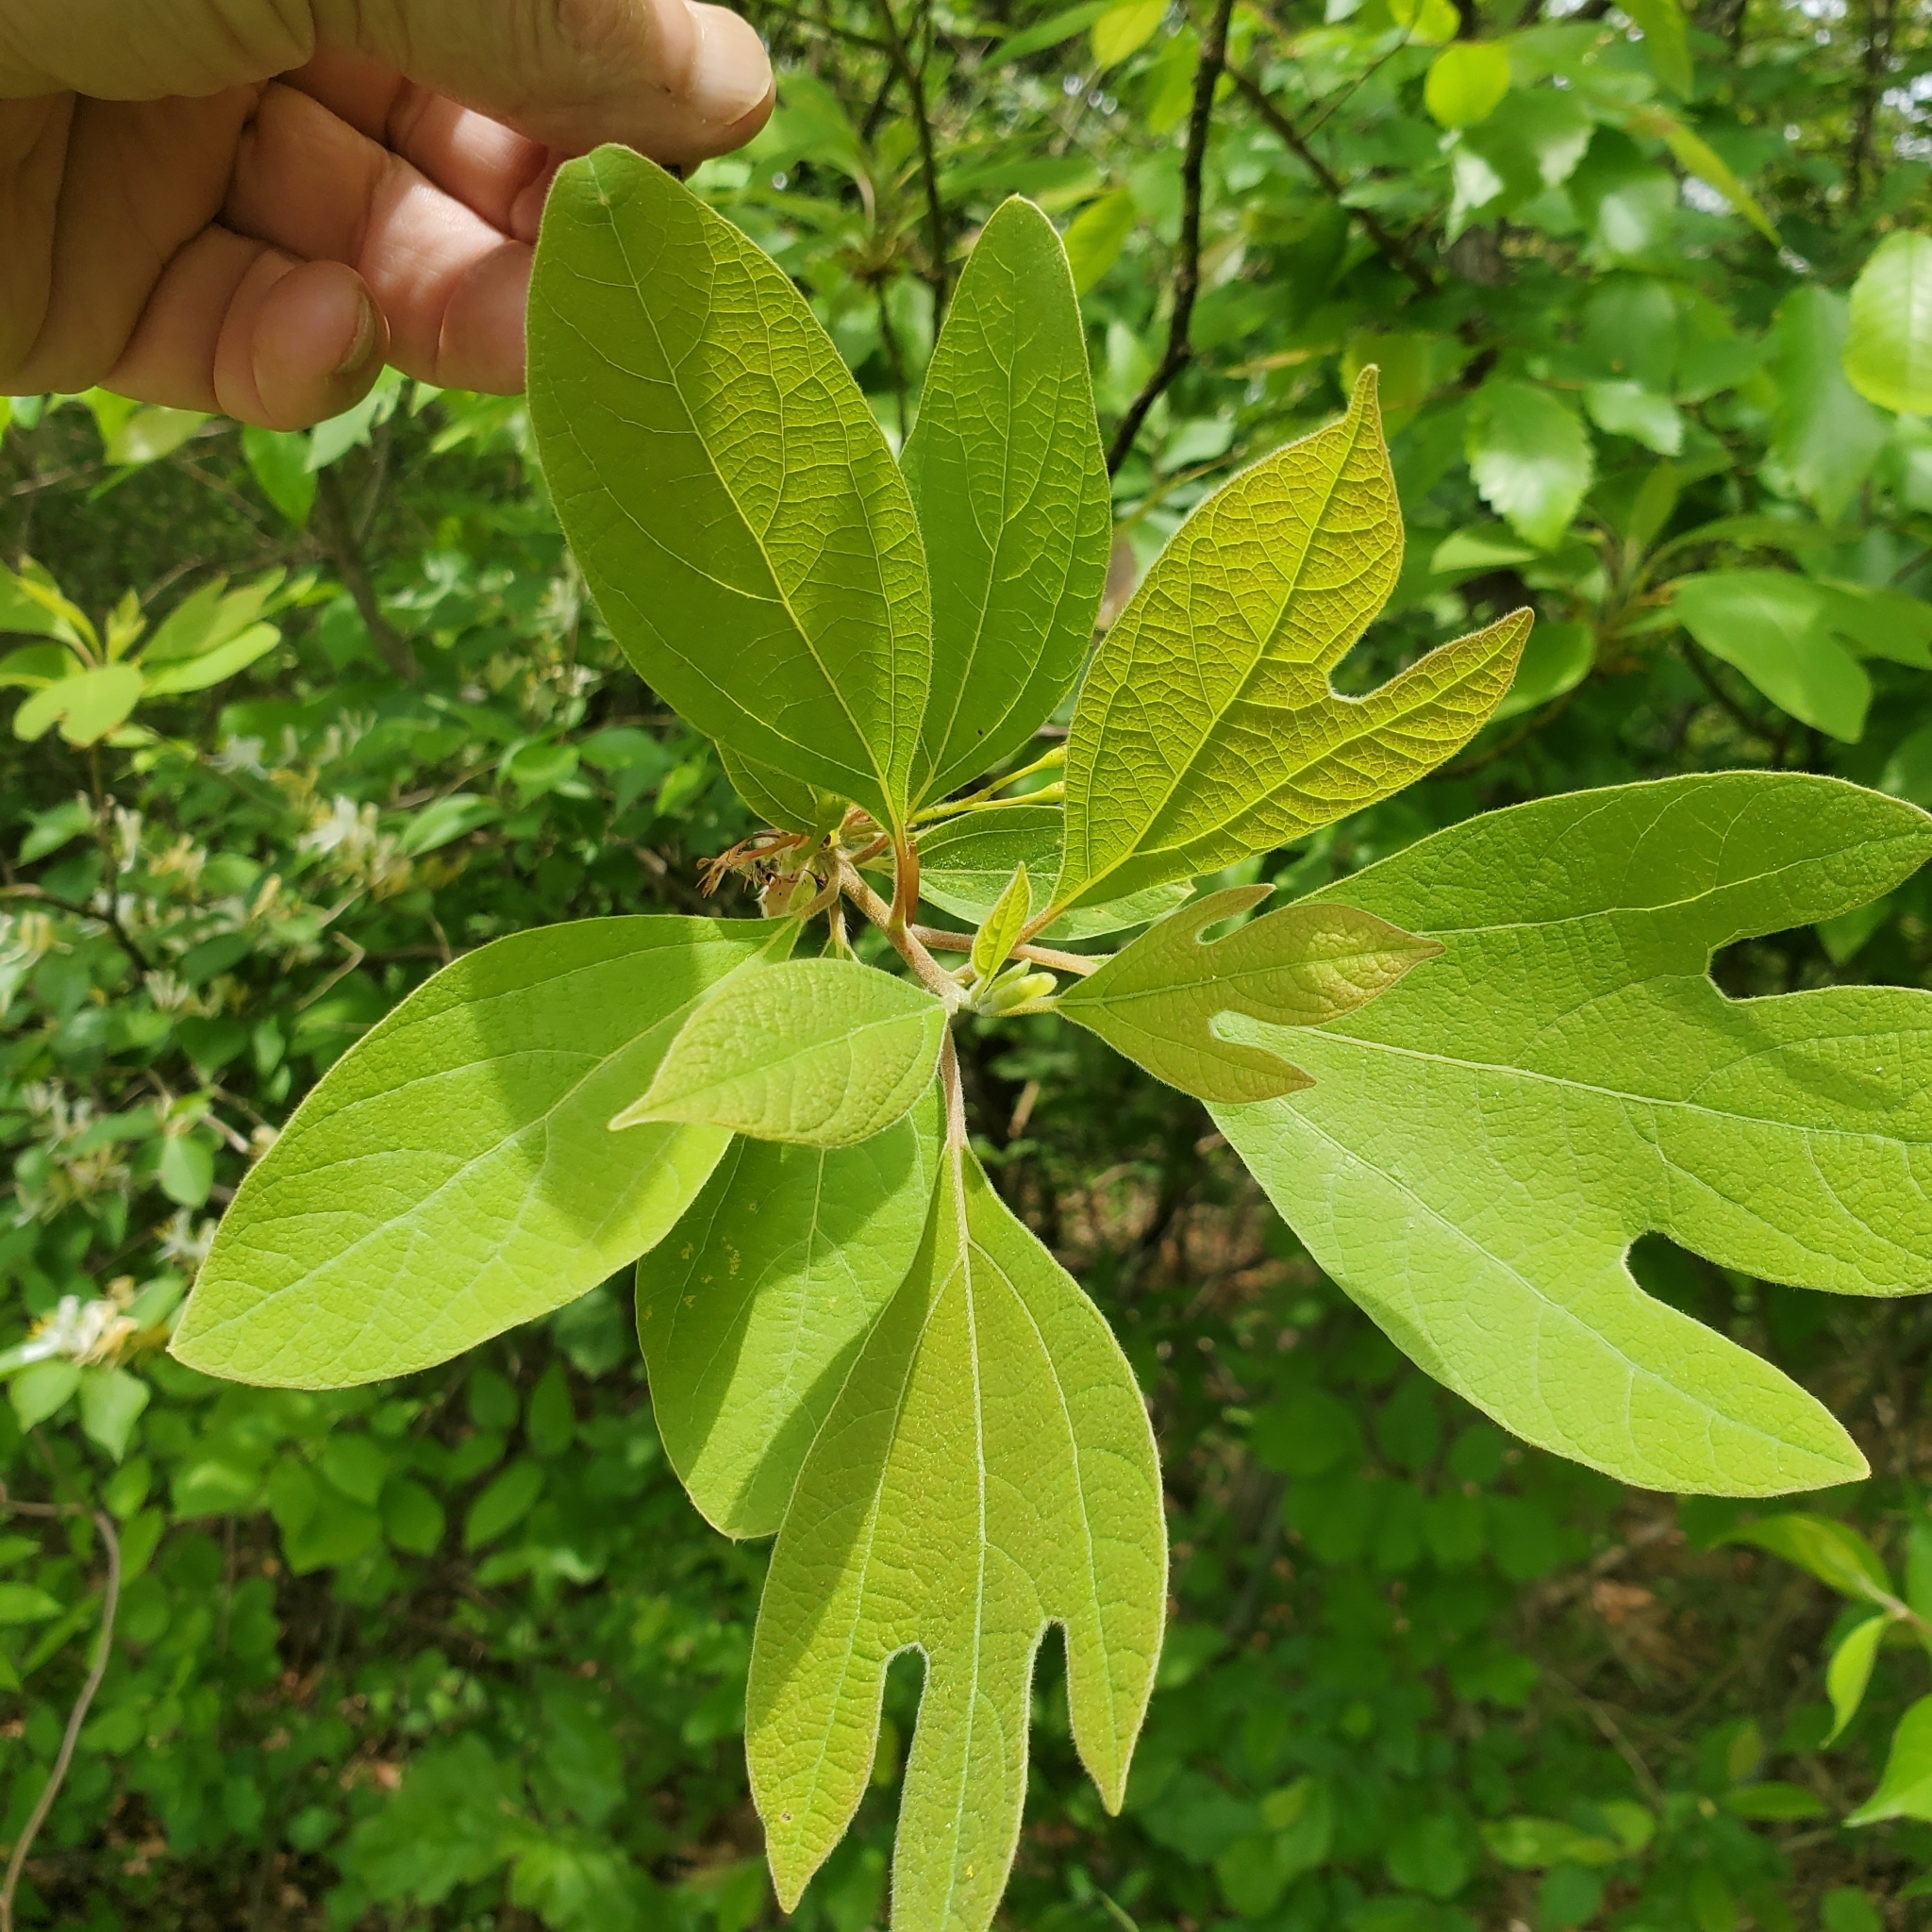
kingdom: Plantae
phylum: Tracheophyta
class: Magnoliopsida
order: Laurales
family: Lauraceae
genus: Sassafras
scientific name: Sassafras albidum
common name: Sassafras
